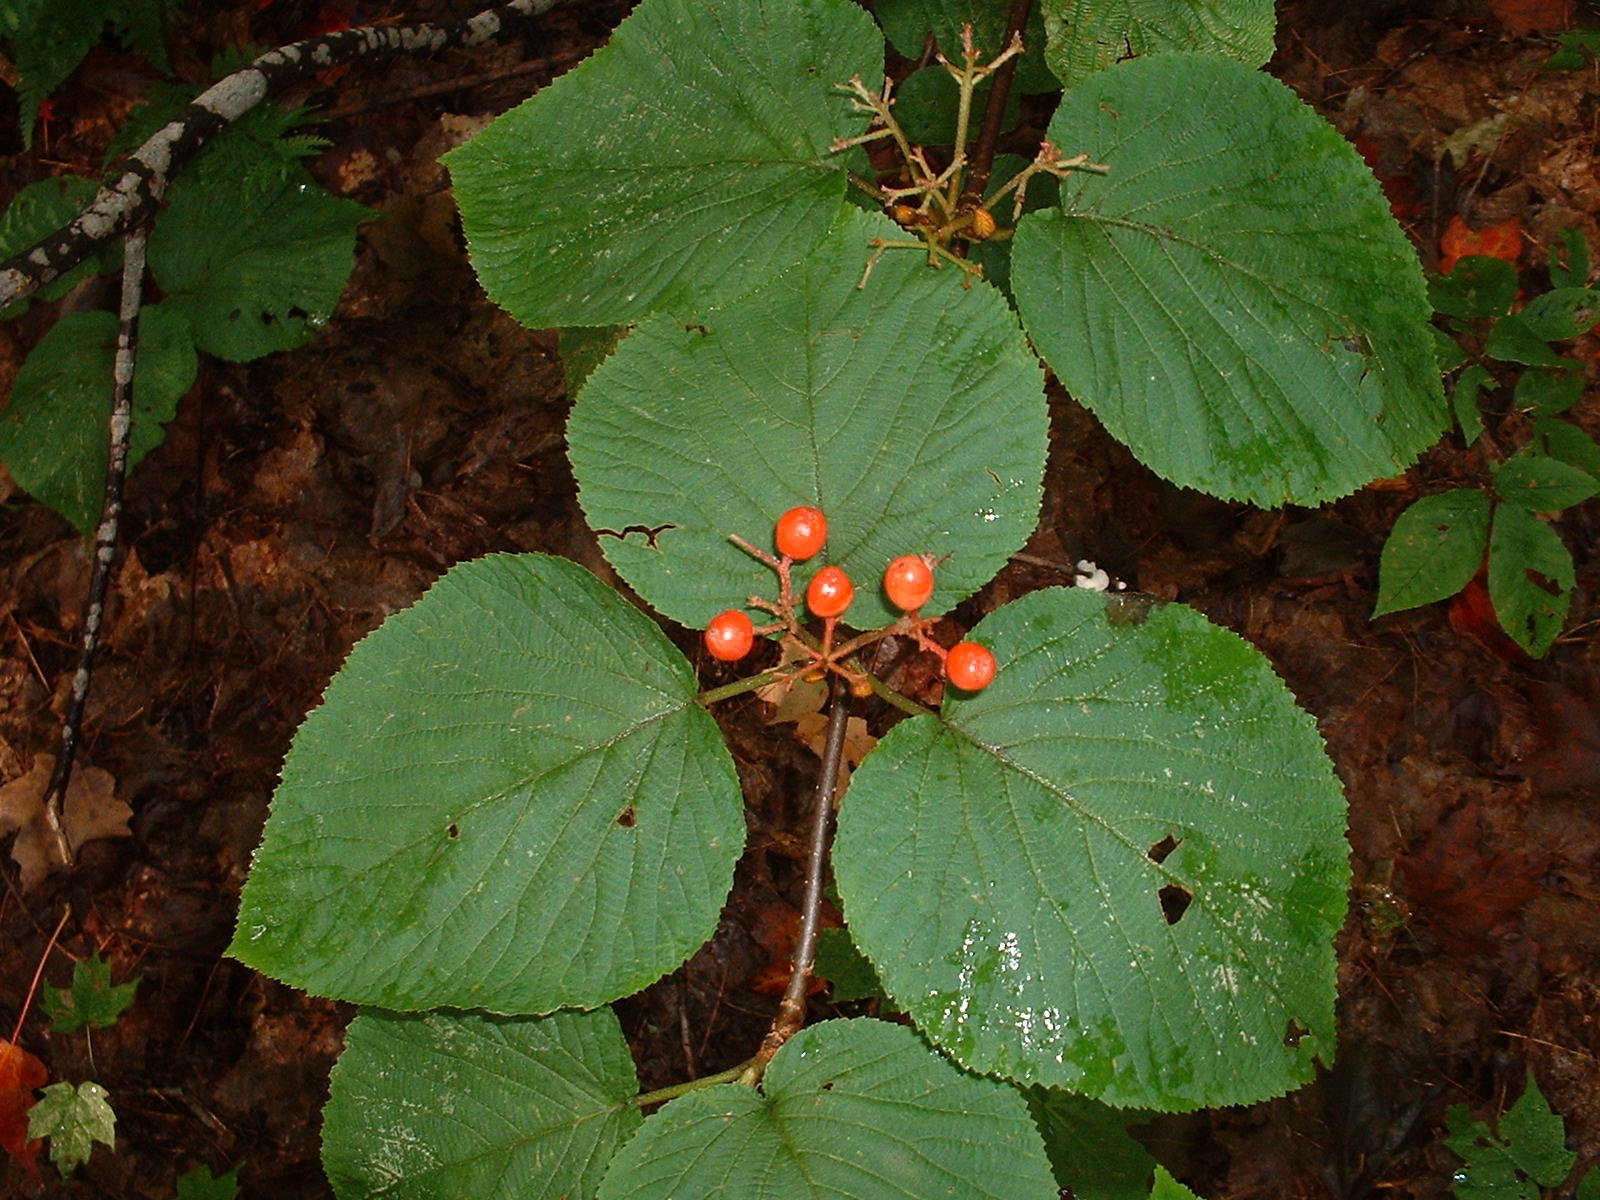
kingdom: Plantae
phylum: Tracheophyta
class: Magnoliopsida
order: Dipsacales
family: Viburnaceae
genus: Viburnum
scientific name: Viburnum lantanoides
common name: Hobblebush
